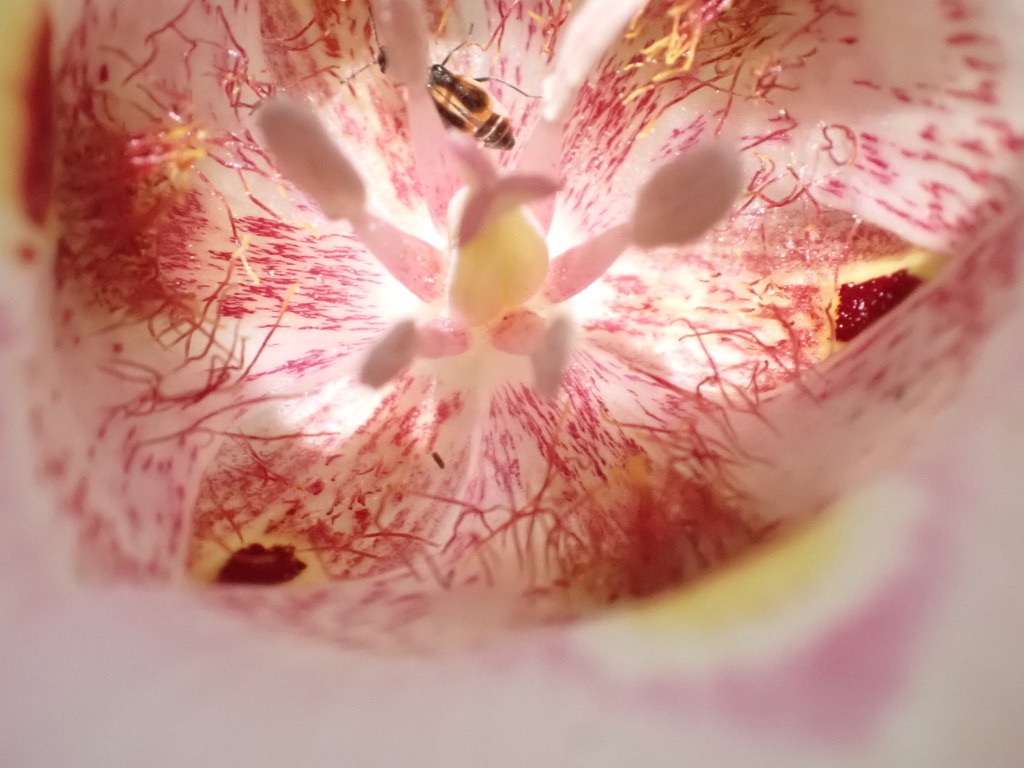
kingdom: Plantae
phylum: Tracheophyta
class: Liliopsida
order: Liliales
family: Liliaceae
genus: Calochortus
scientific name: Calochortus argillosus
